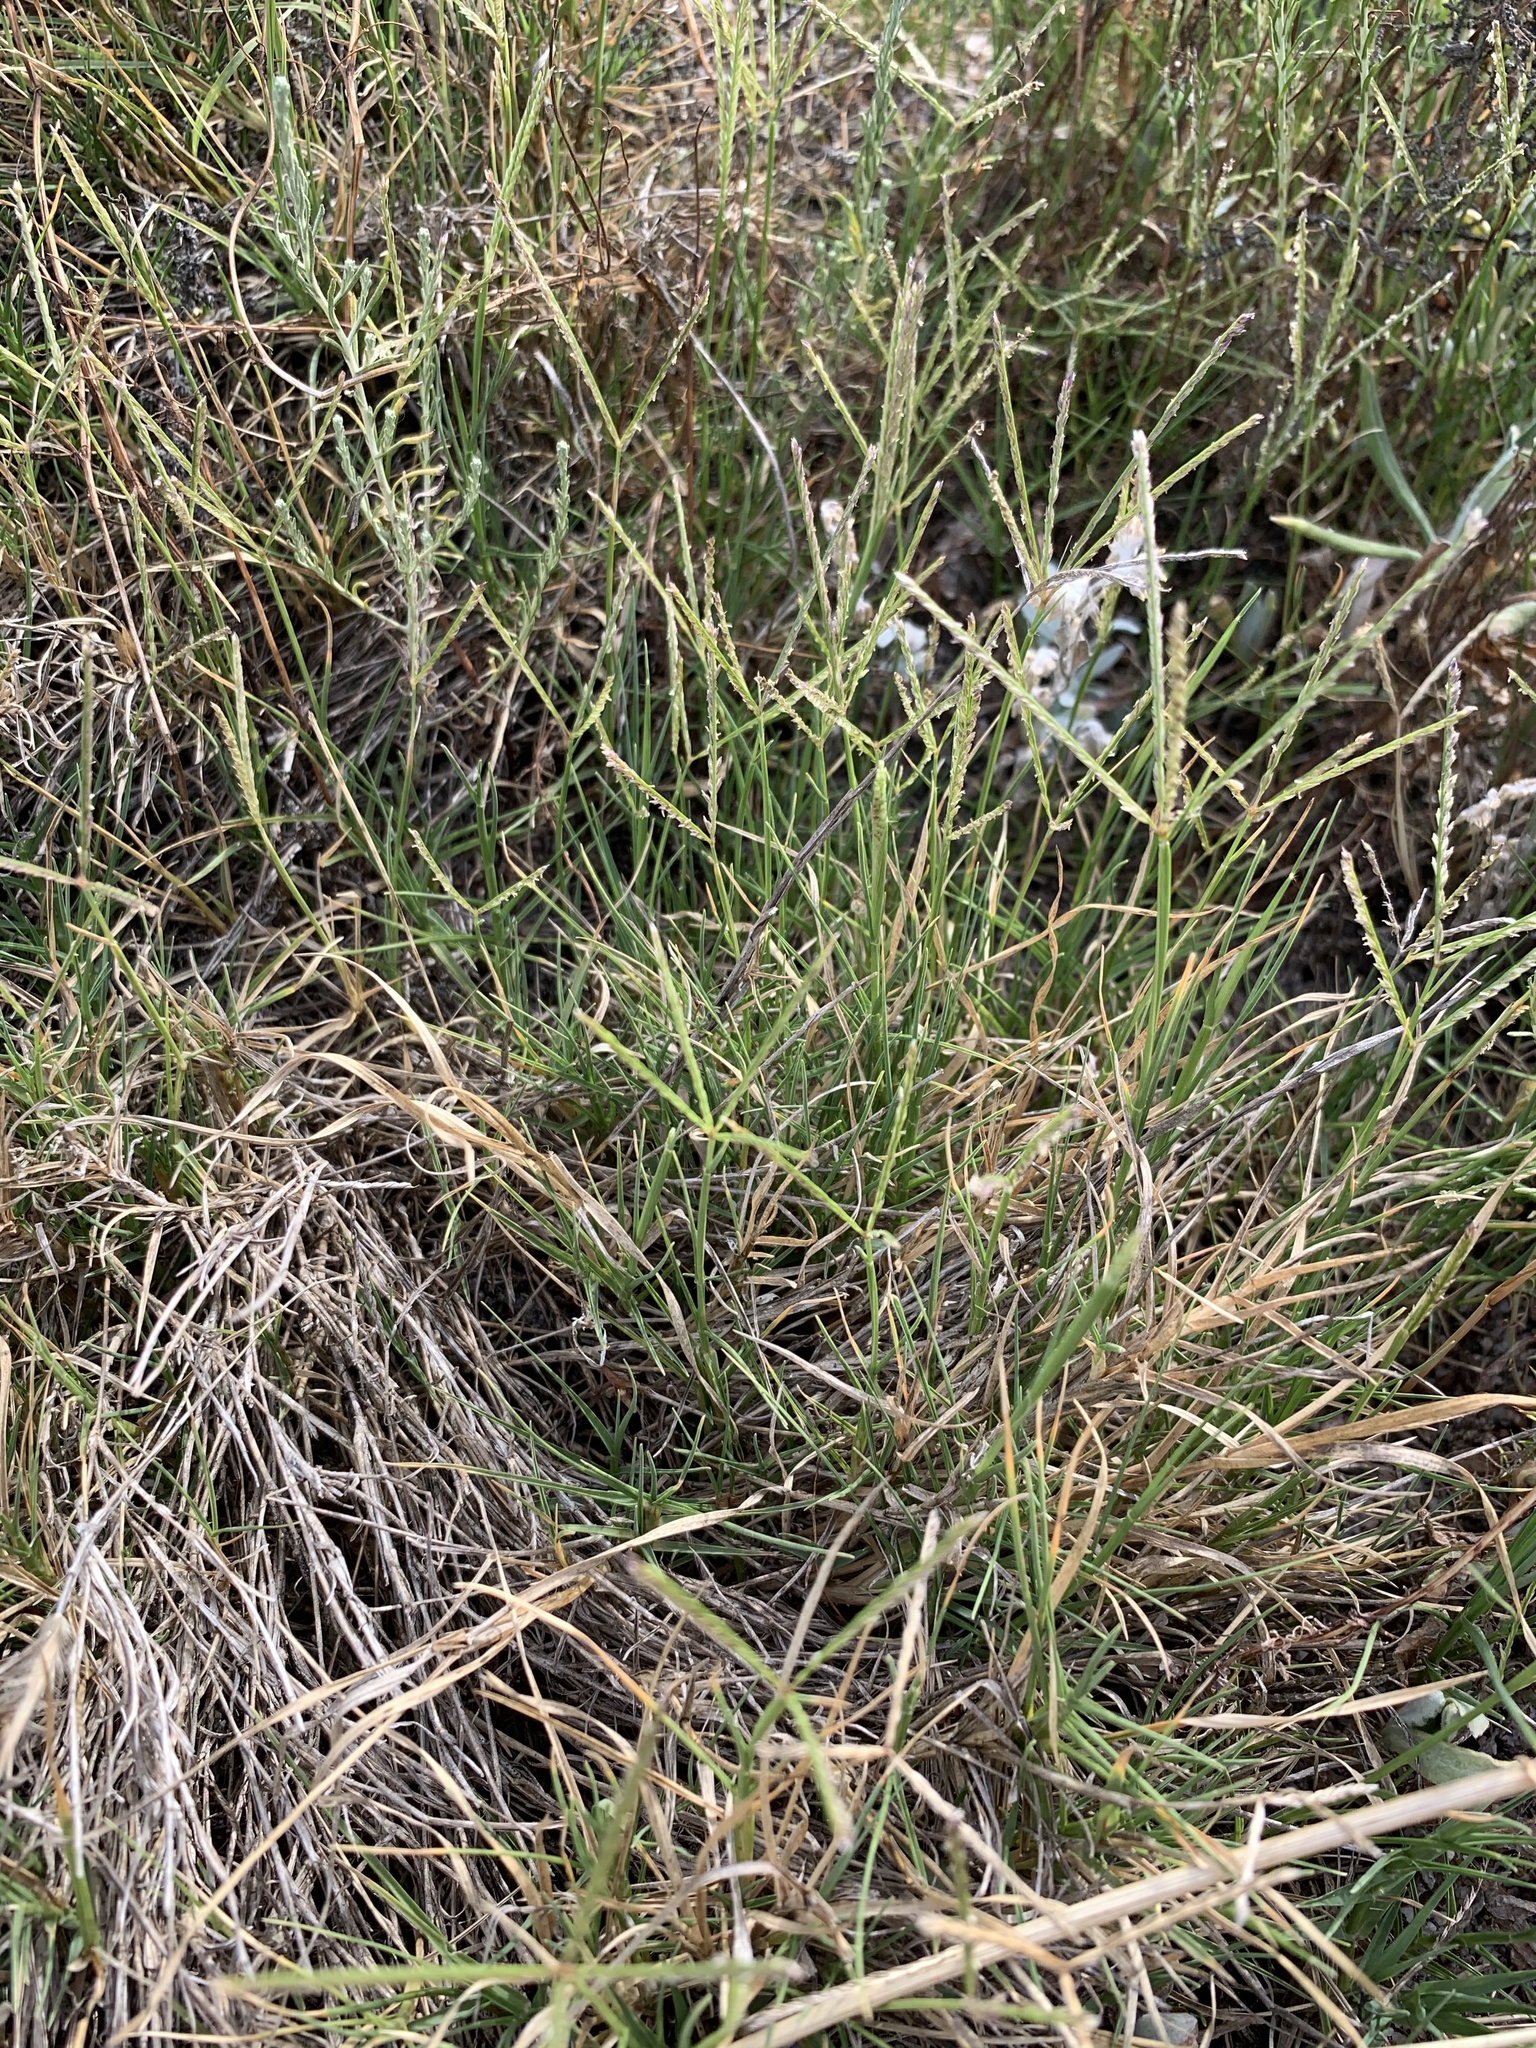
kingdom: Plantae
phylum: Tracheophyta
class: Liliopsida
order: Poales
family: Poaceae
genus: Cynodon
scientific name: Cynodon dactylon
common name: Bermuda grass
